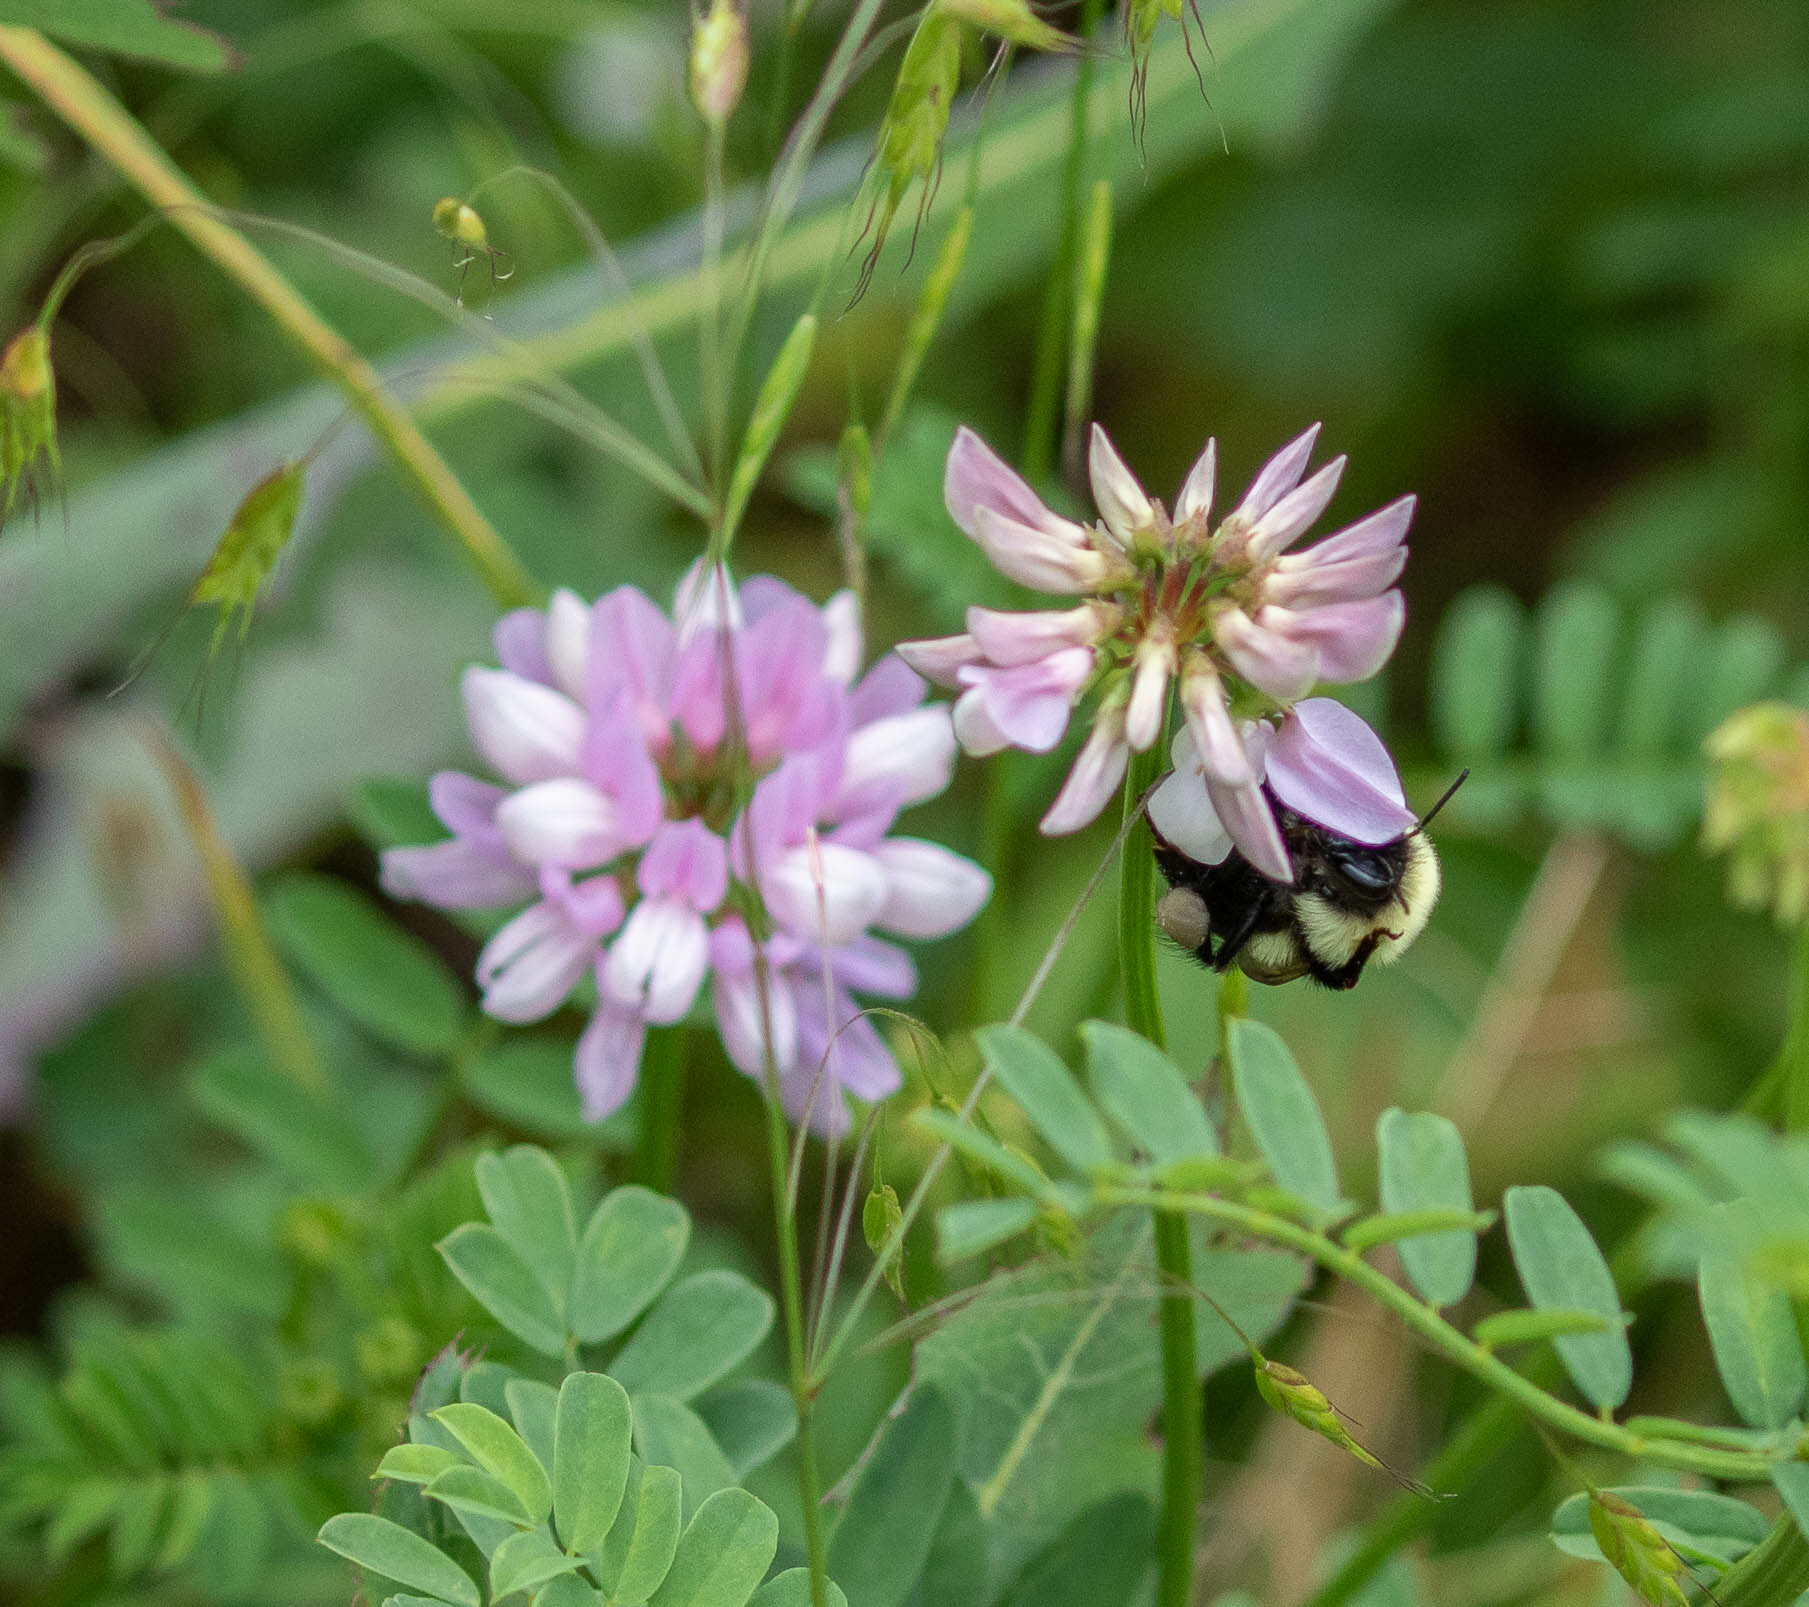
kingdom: Animalia
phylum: Arthropoda
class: Insecta
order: Hymenoptera
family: Apidae
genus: Bombus
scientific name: Bombus
